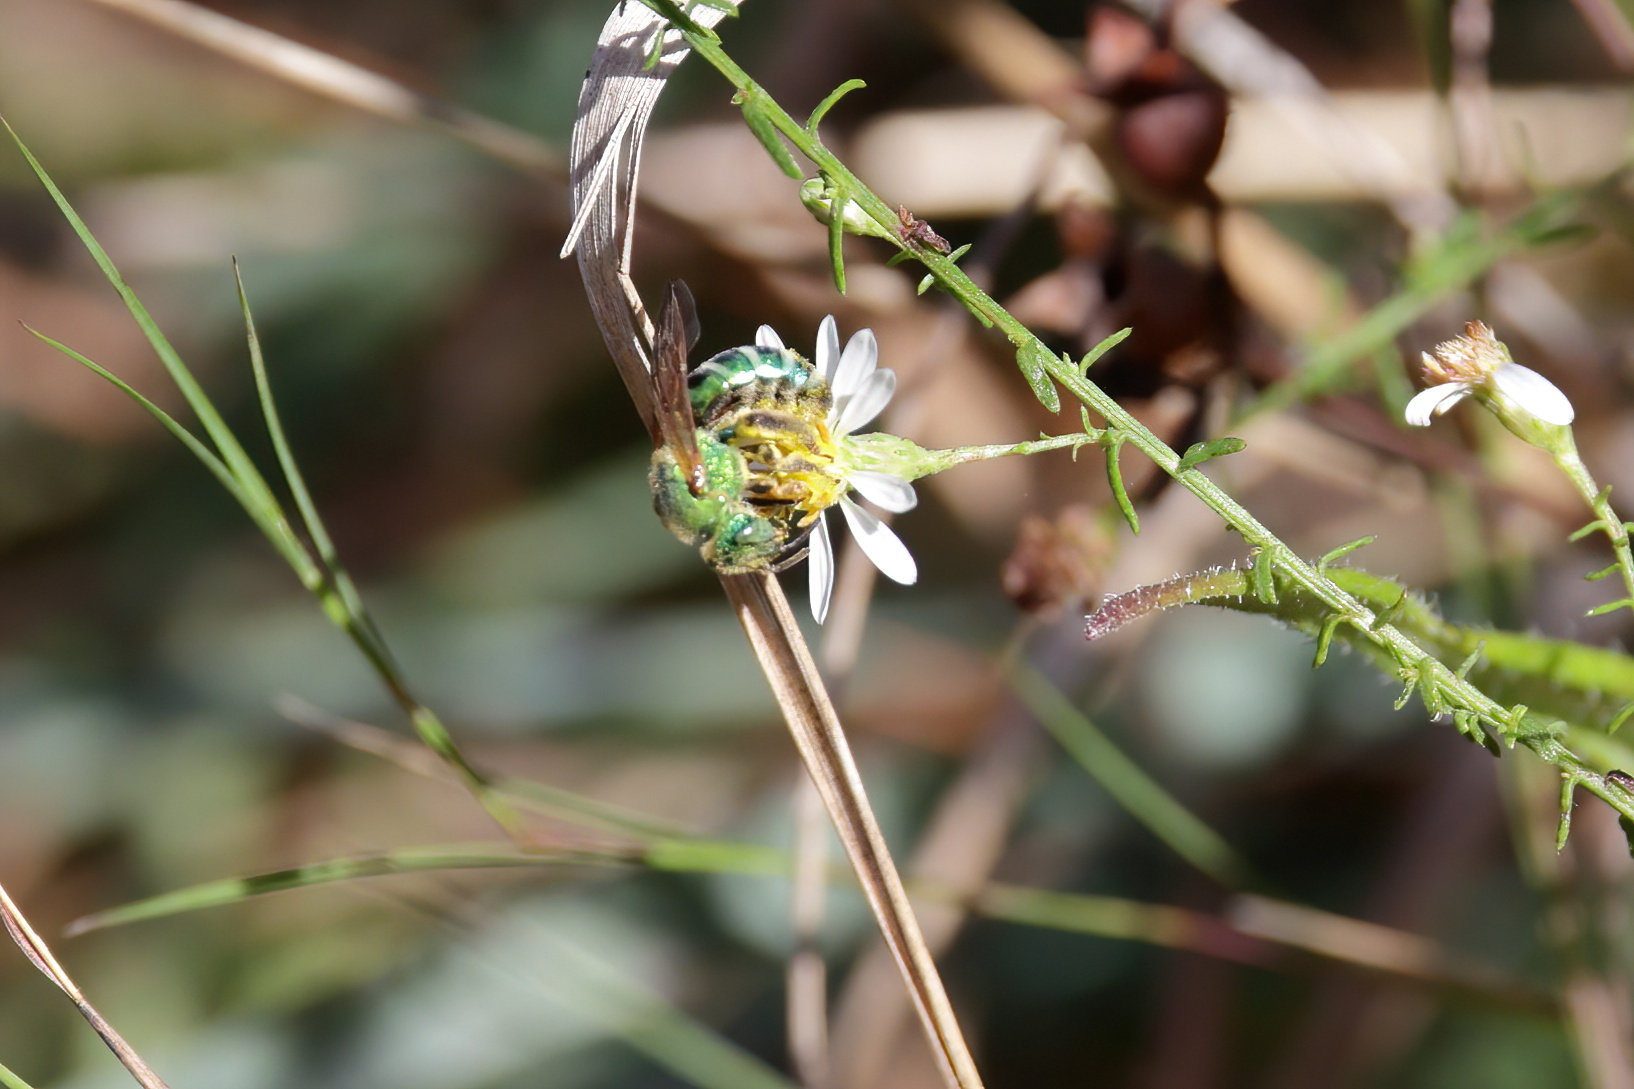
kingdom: Animalia
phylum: Arthropoda
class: Insecta
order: Hymenoptera
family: Halictidae
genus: Agapostemon
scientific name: Agapostemon splendens
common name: Brown-winged striped sweat bee
